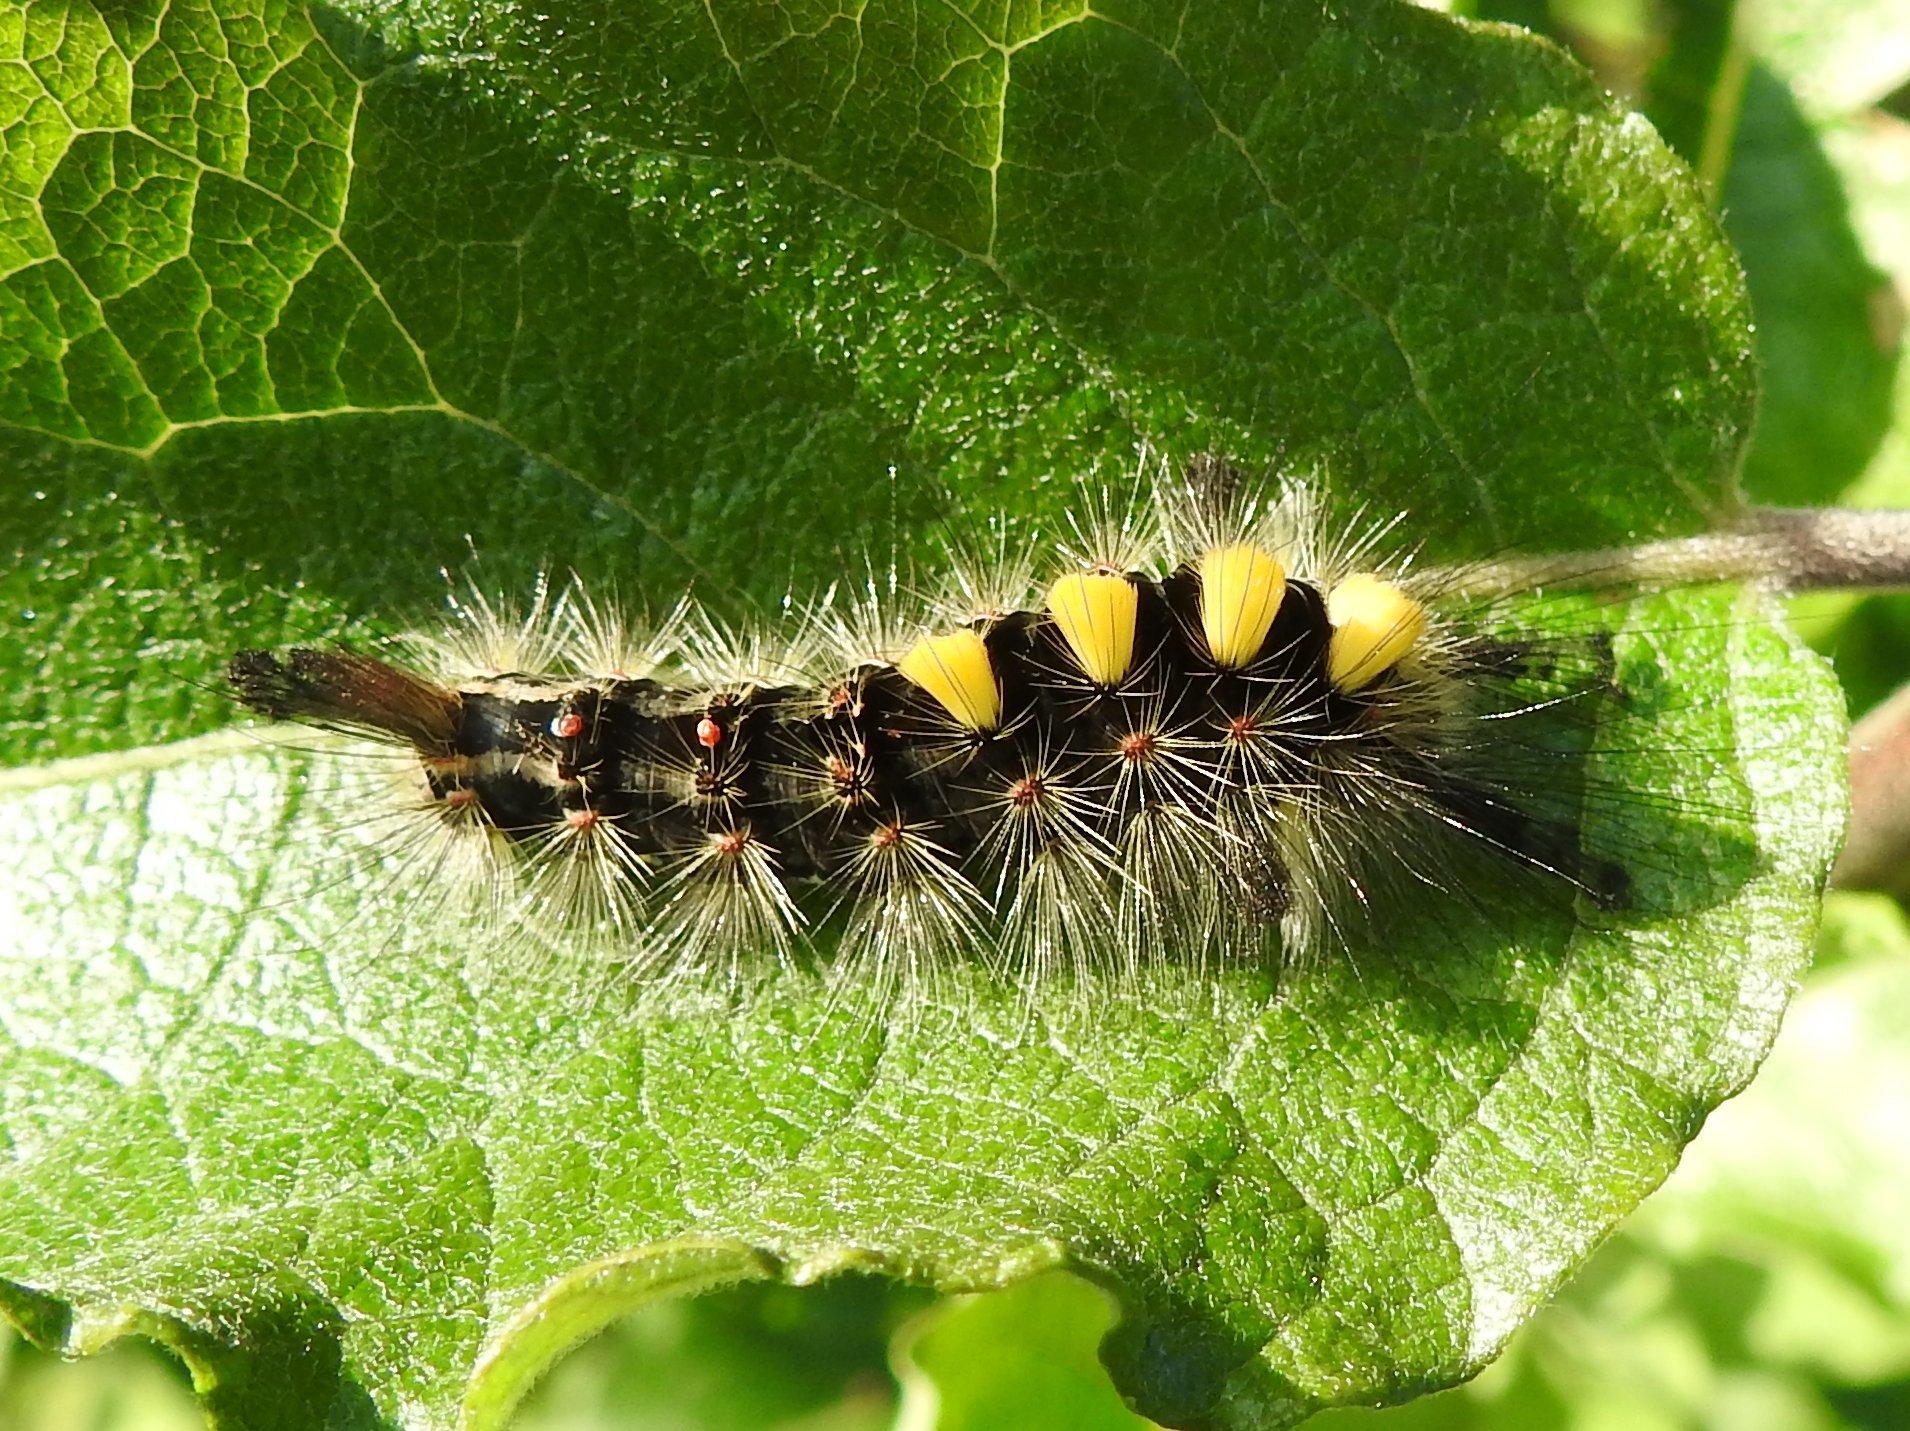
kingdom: Animalia
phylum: Arthropoda
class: Insecta
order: Lepidoptera
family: Erebidae
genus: Orgyia
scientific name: Orgyia antiqua
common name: Vapourer
